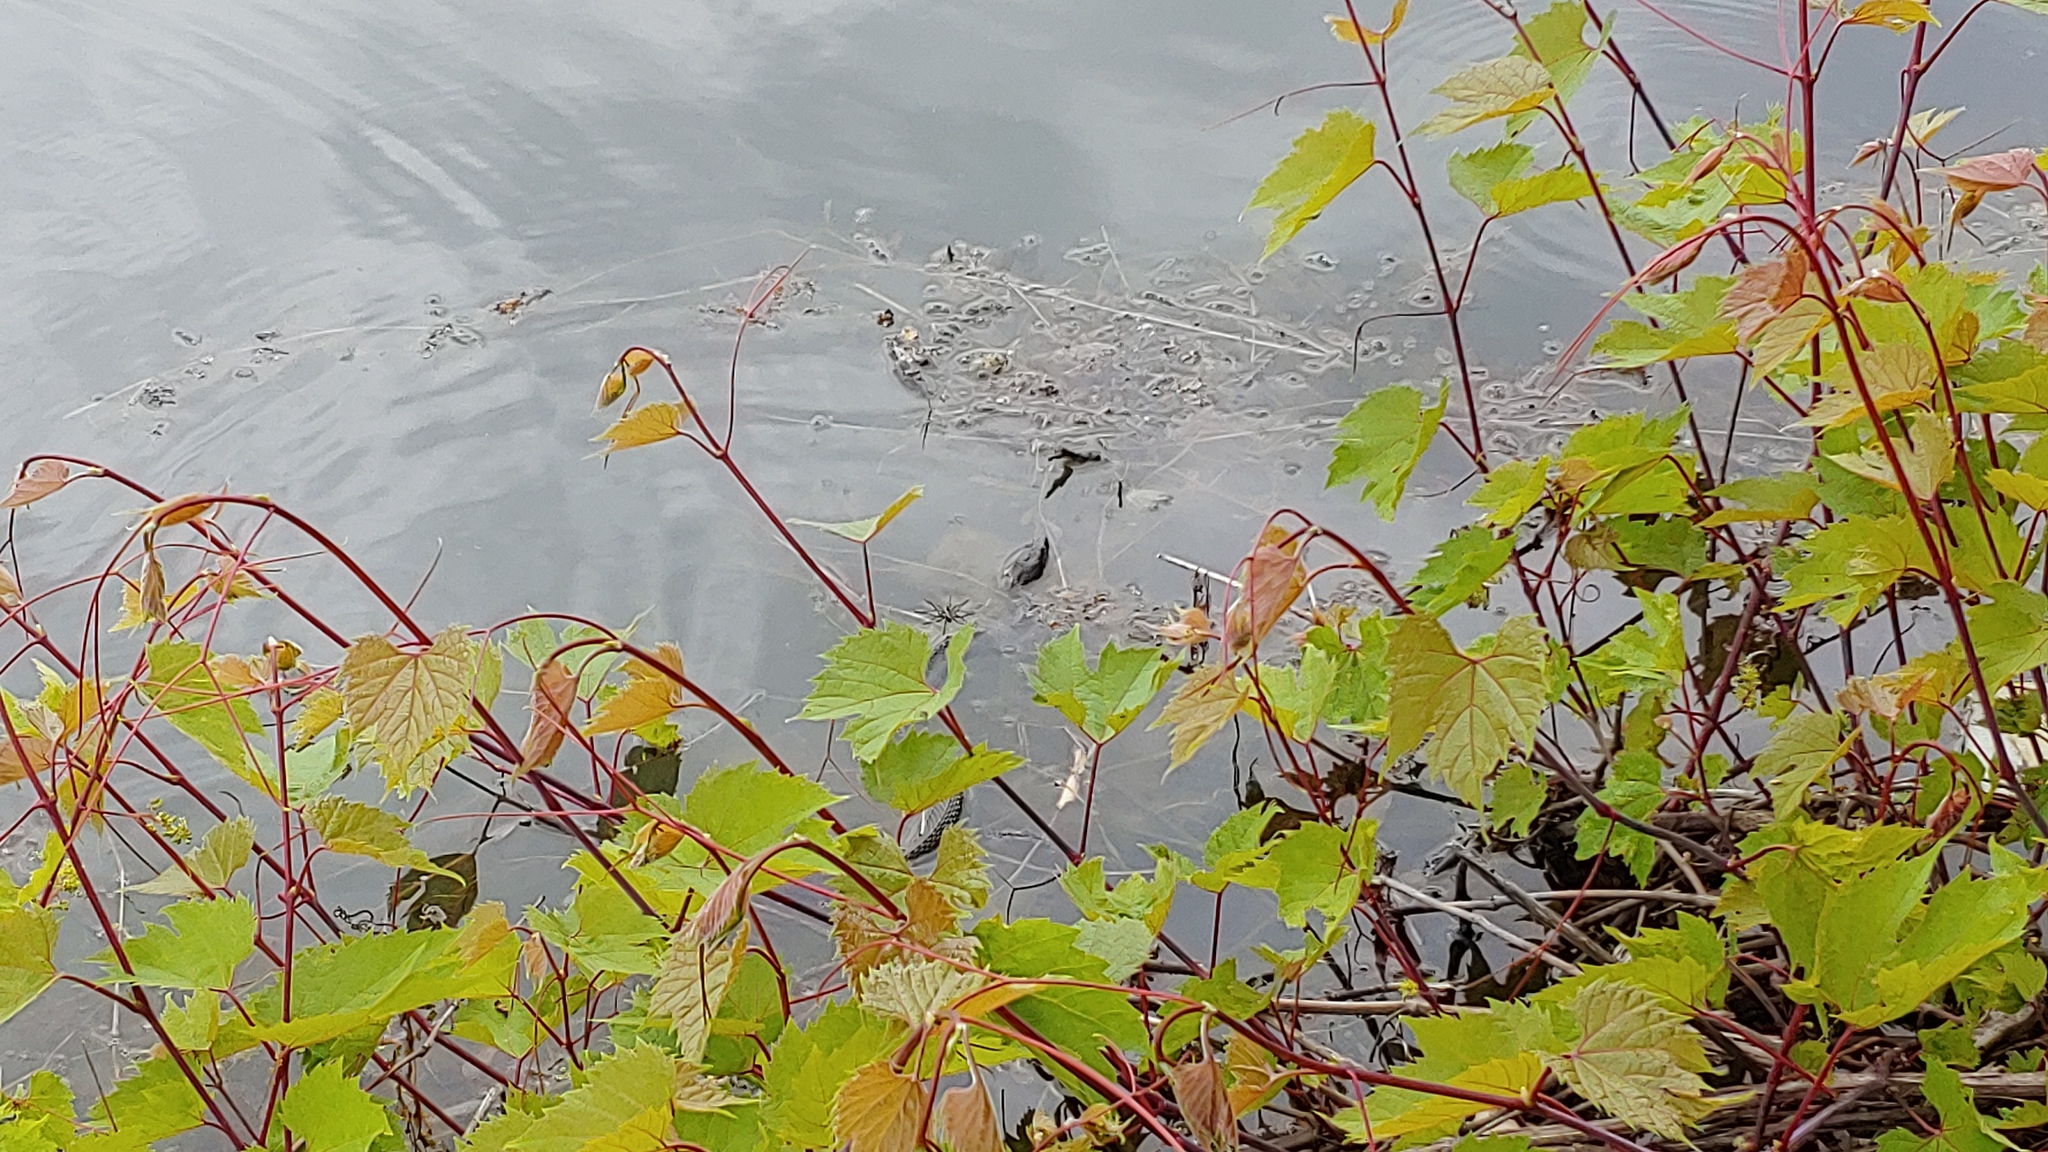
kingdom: Animalia
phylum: Chordata
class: Squamata
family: Colubridae
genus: Nerodia
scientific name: Nerodia sipedon
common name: Northern water snake
